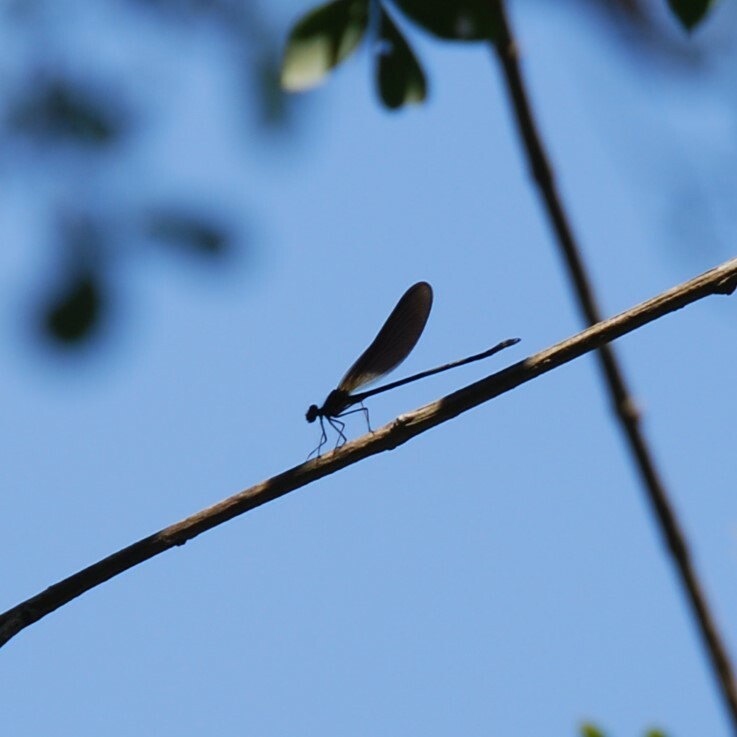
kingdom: Animalia
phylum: Arthropoda
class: Insecta
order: Odonata
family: Calopterygidae
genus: Calopteryx
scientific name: Calopteryx haemorrhoidalis
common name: Copper demoiselle
